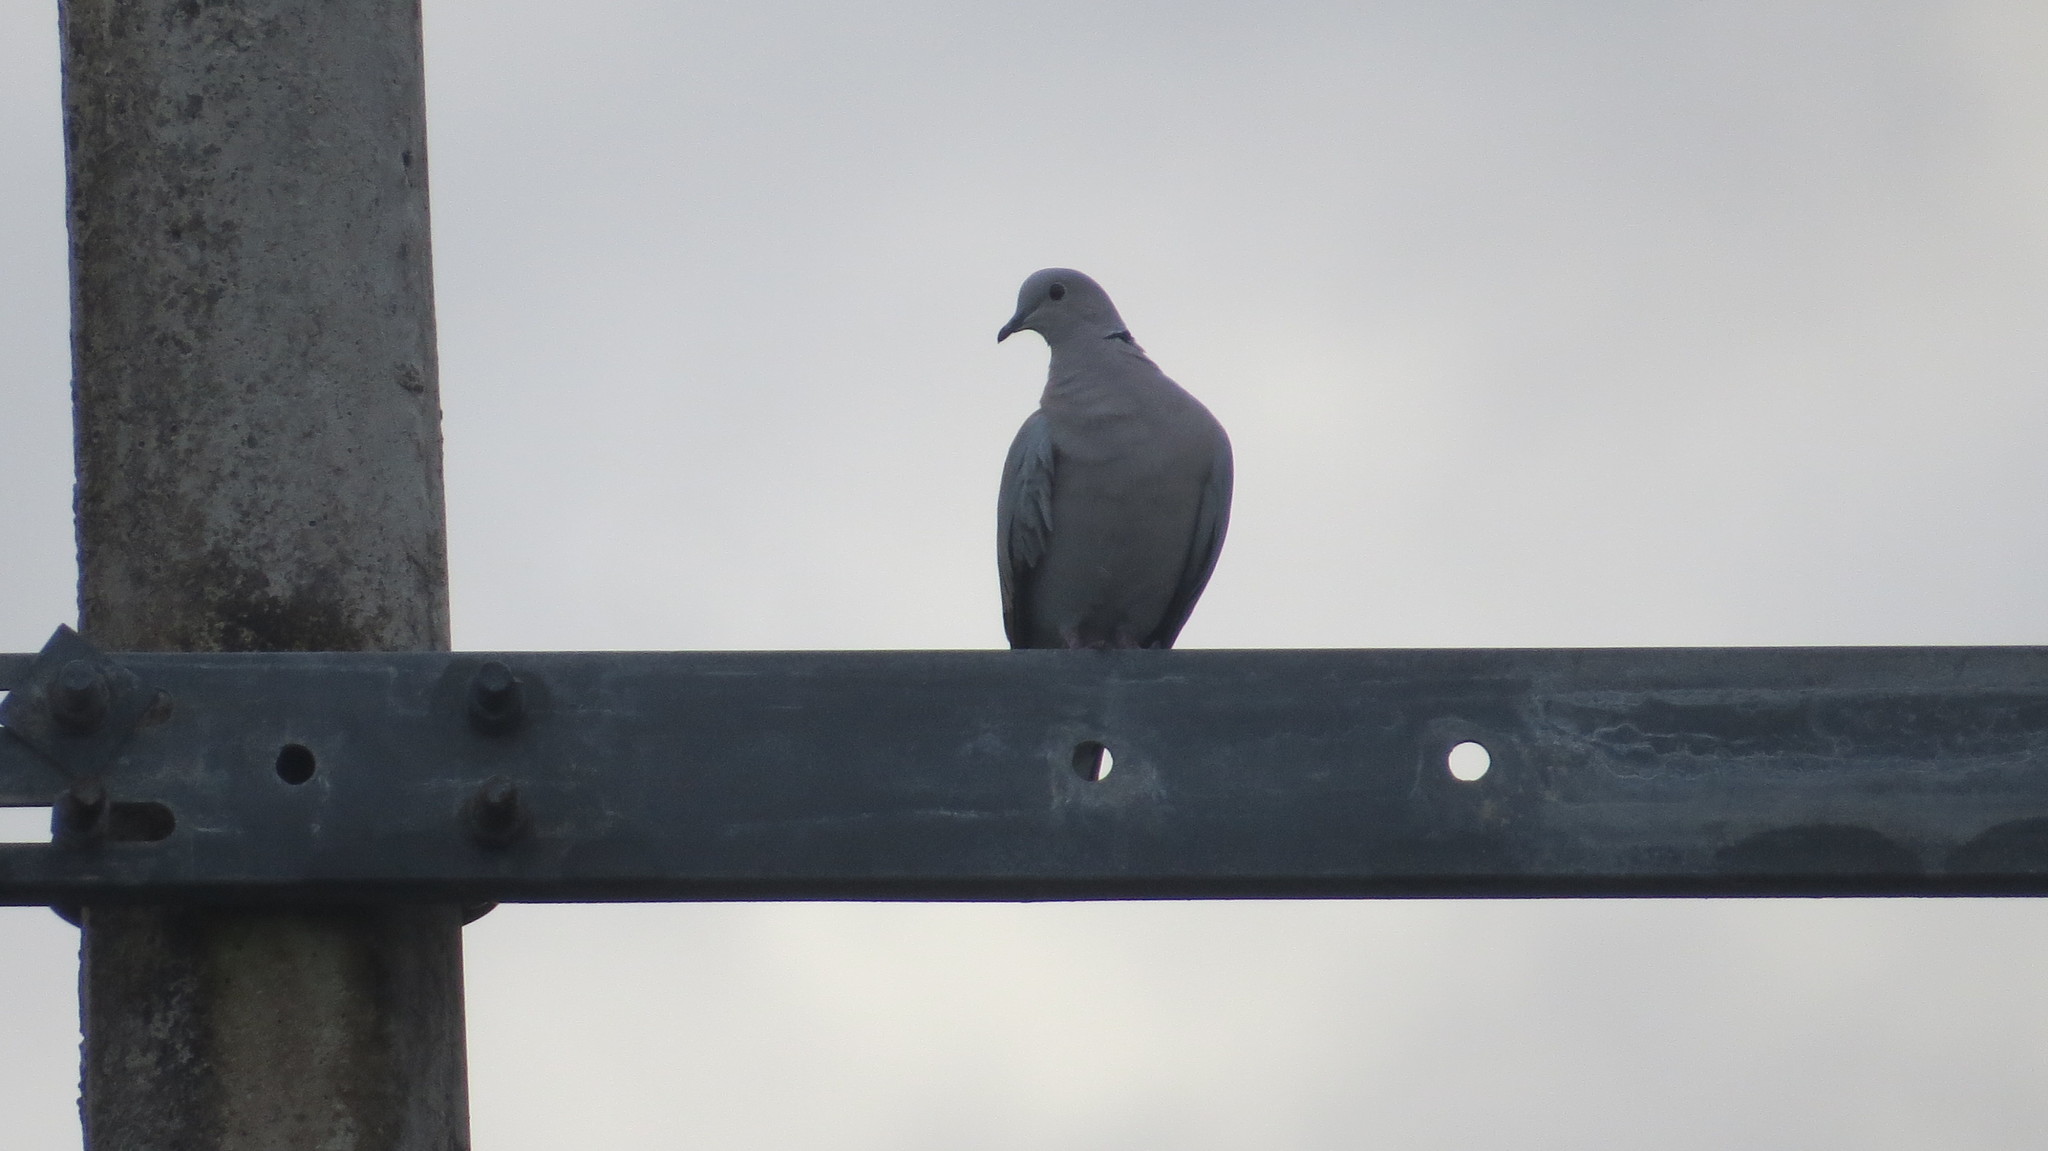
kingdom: Animalia
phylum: Chordata
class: Aves
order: Columbiformes
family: Columbidae
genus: Streptopelia
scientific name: Streptopelia decaocto
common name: Eurasian collared dove
